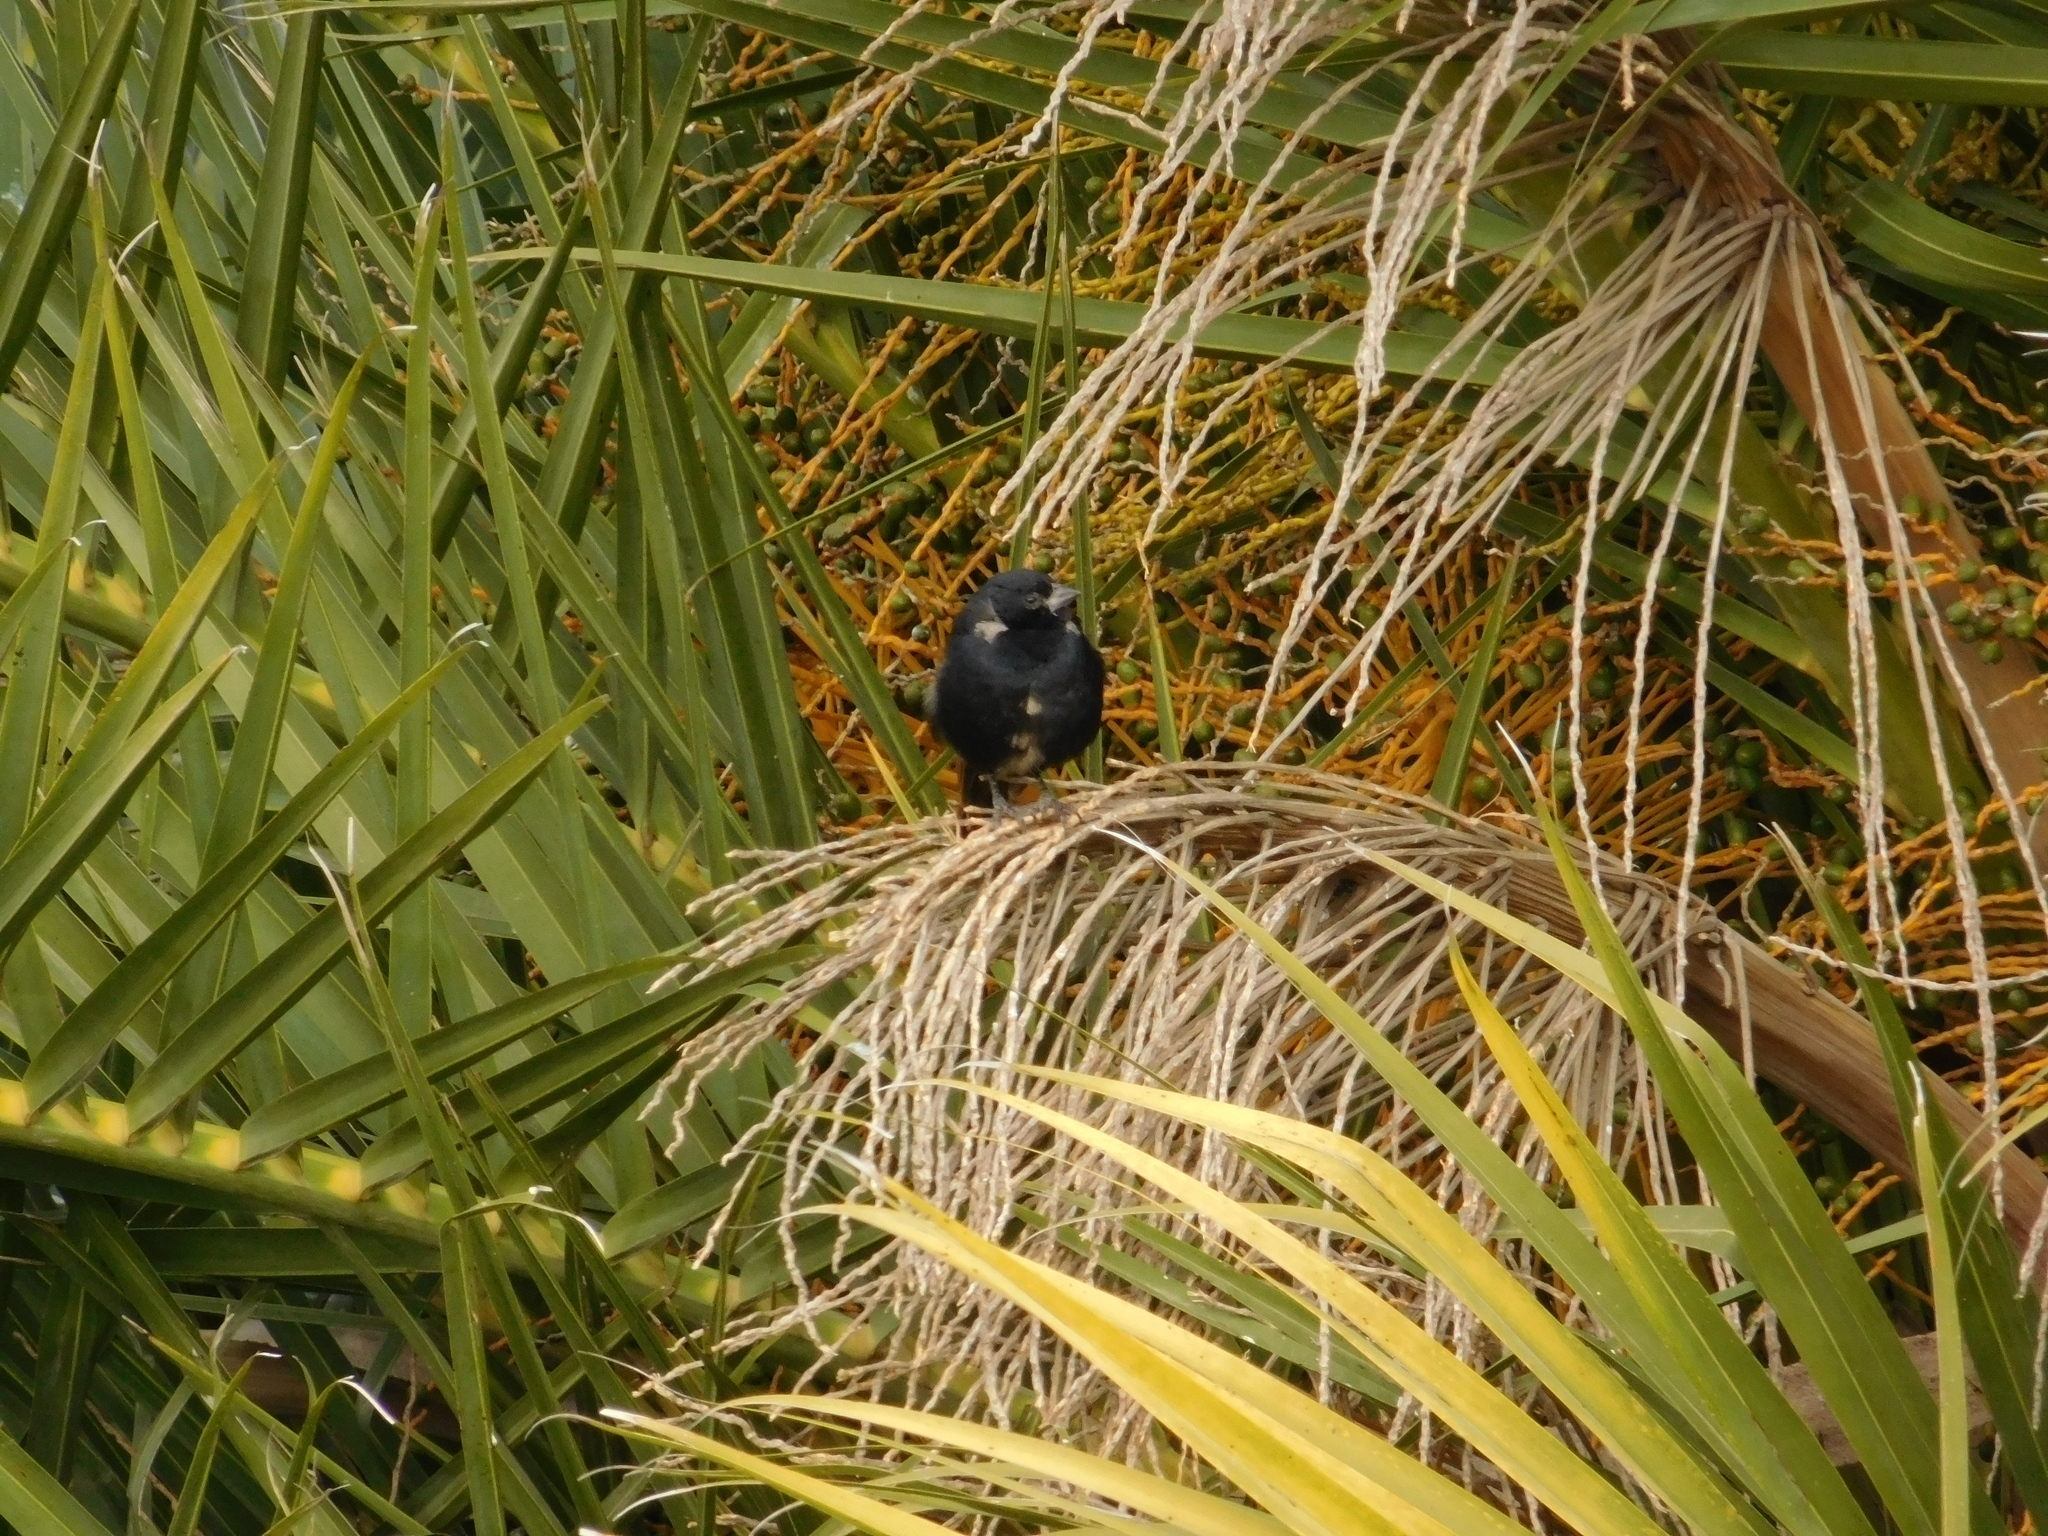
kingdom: Animalia
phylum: Chordata
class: Aves
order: Passeriformes
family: Icteridae
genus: Molothrus
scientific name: Molothrus rufoaxillaris
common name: Screaming cowbird
